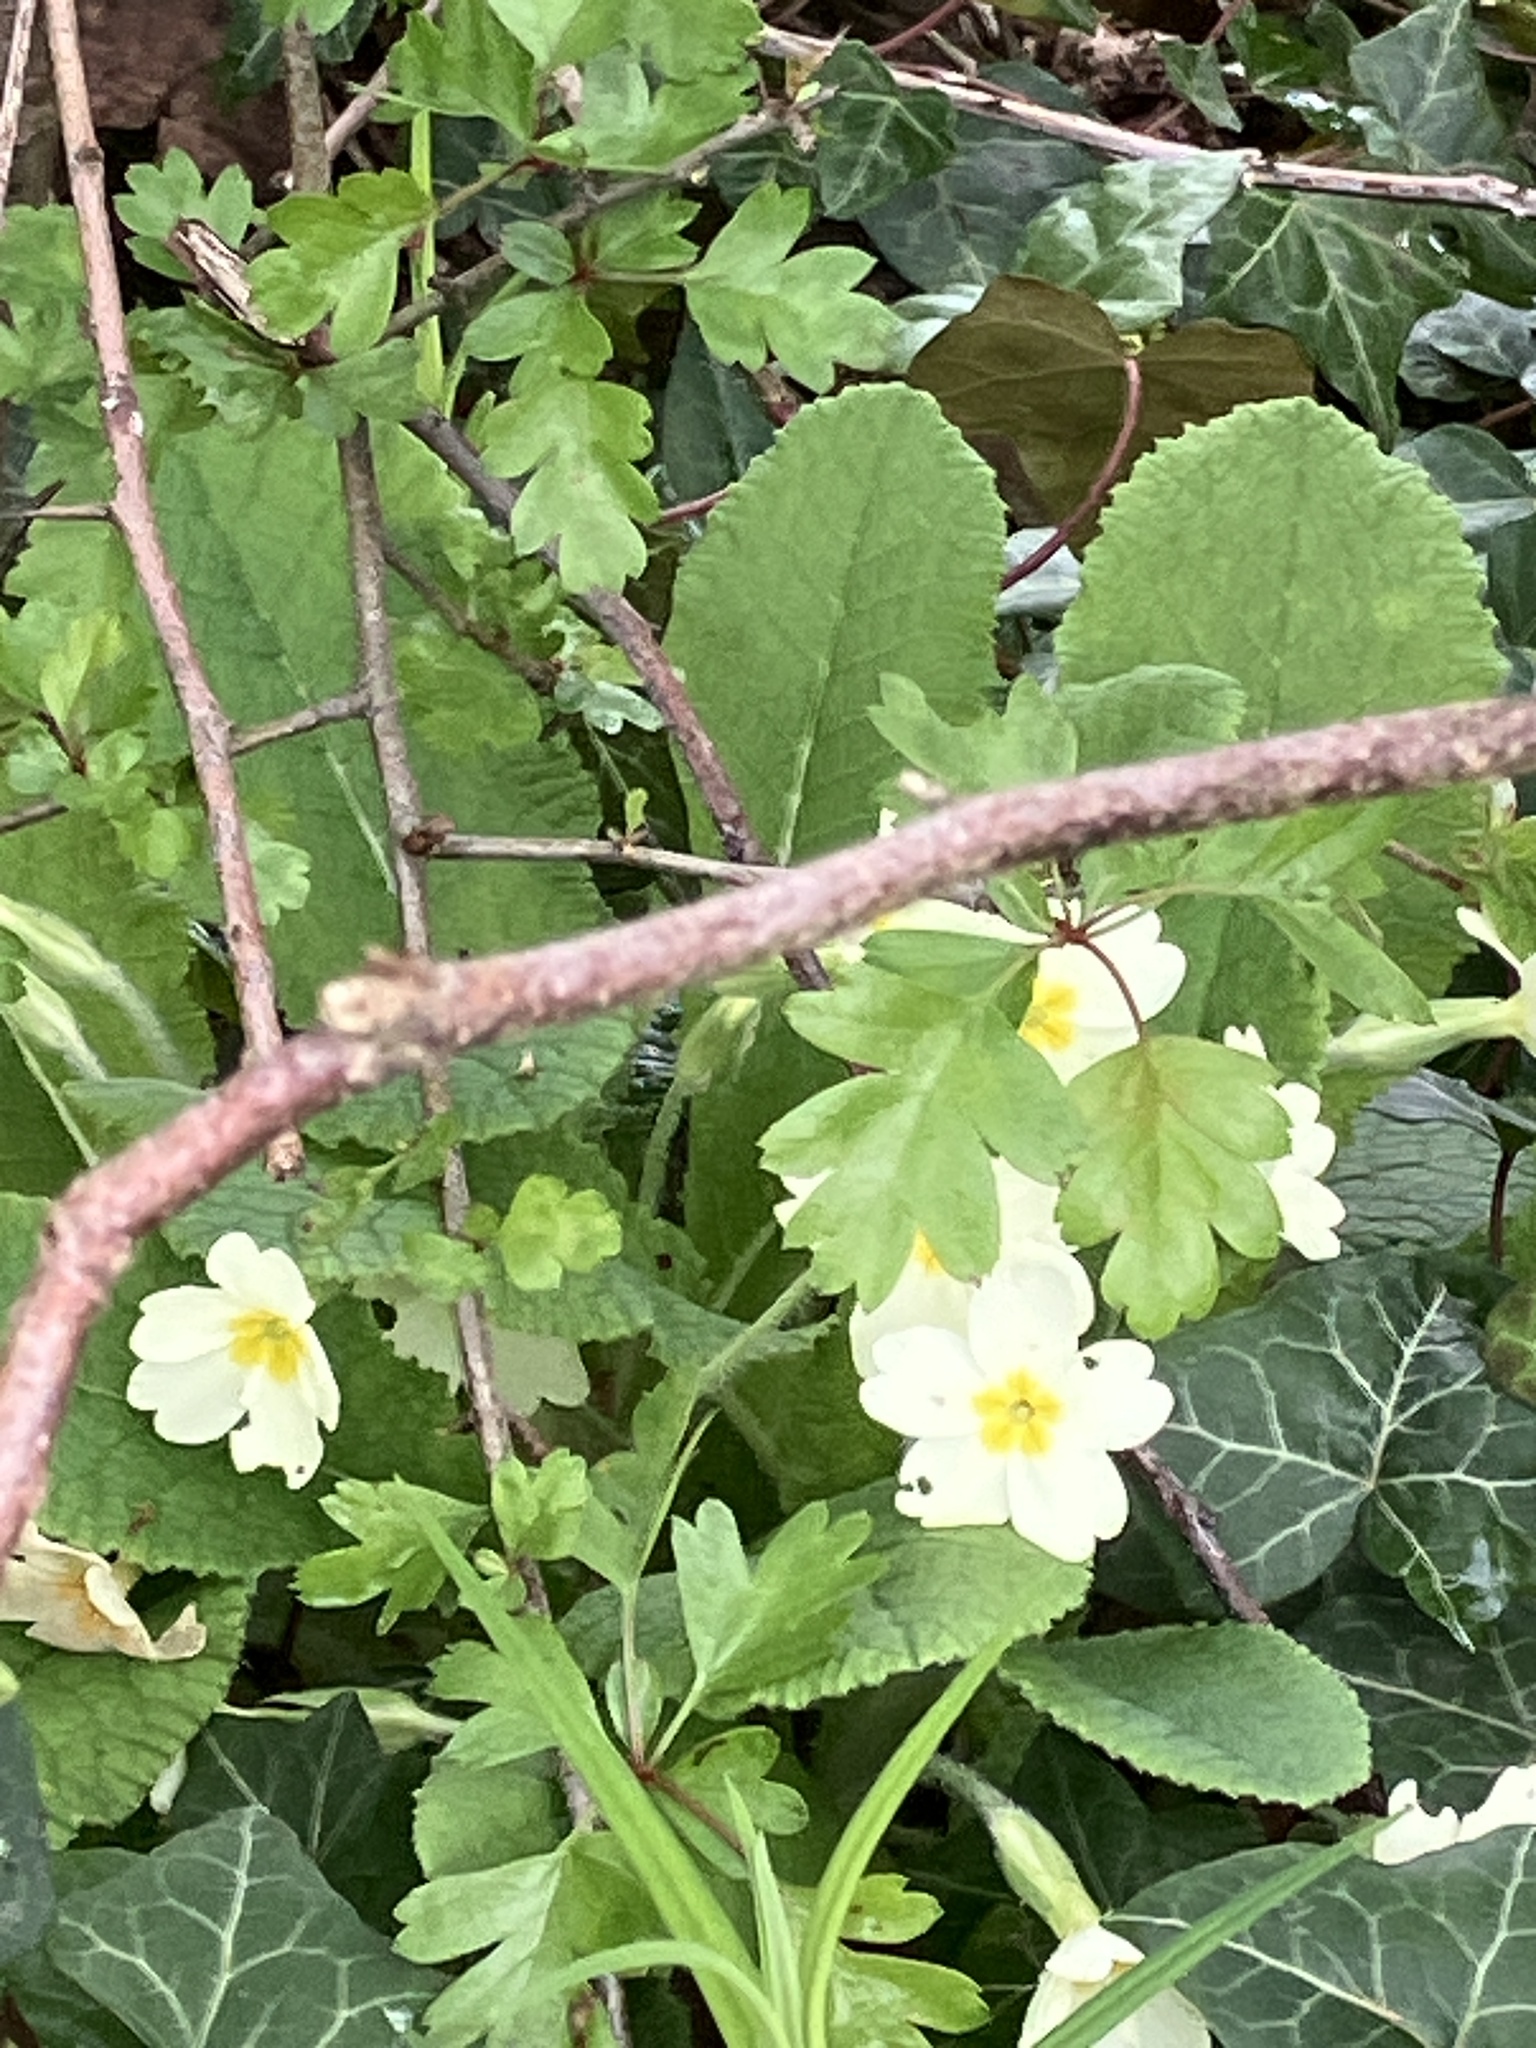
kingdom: Plantae
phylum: Tracheophyta
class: Magnoliopsida
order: Ericales
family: Primulaceae
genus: Primula
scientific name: Primula vulgaris
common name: Primrose
